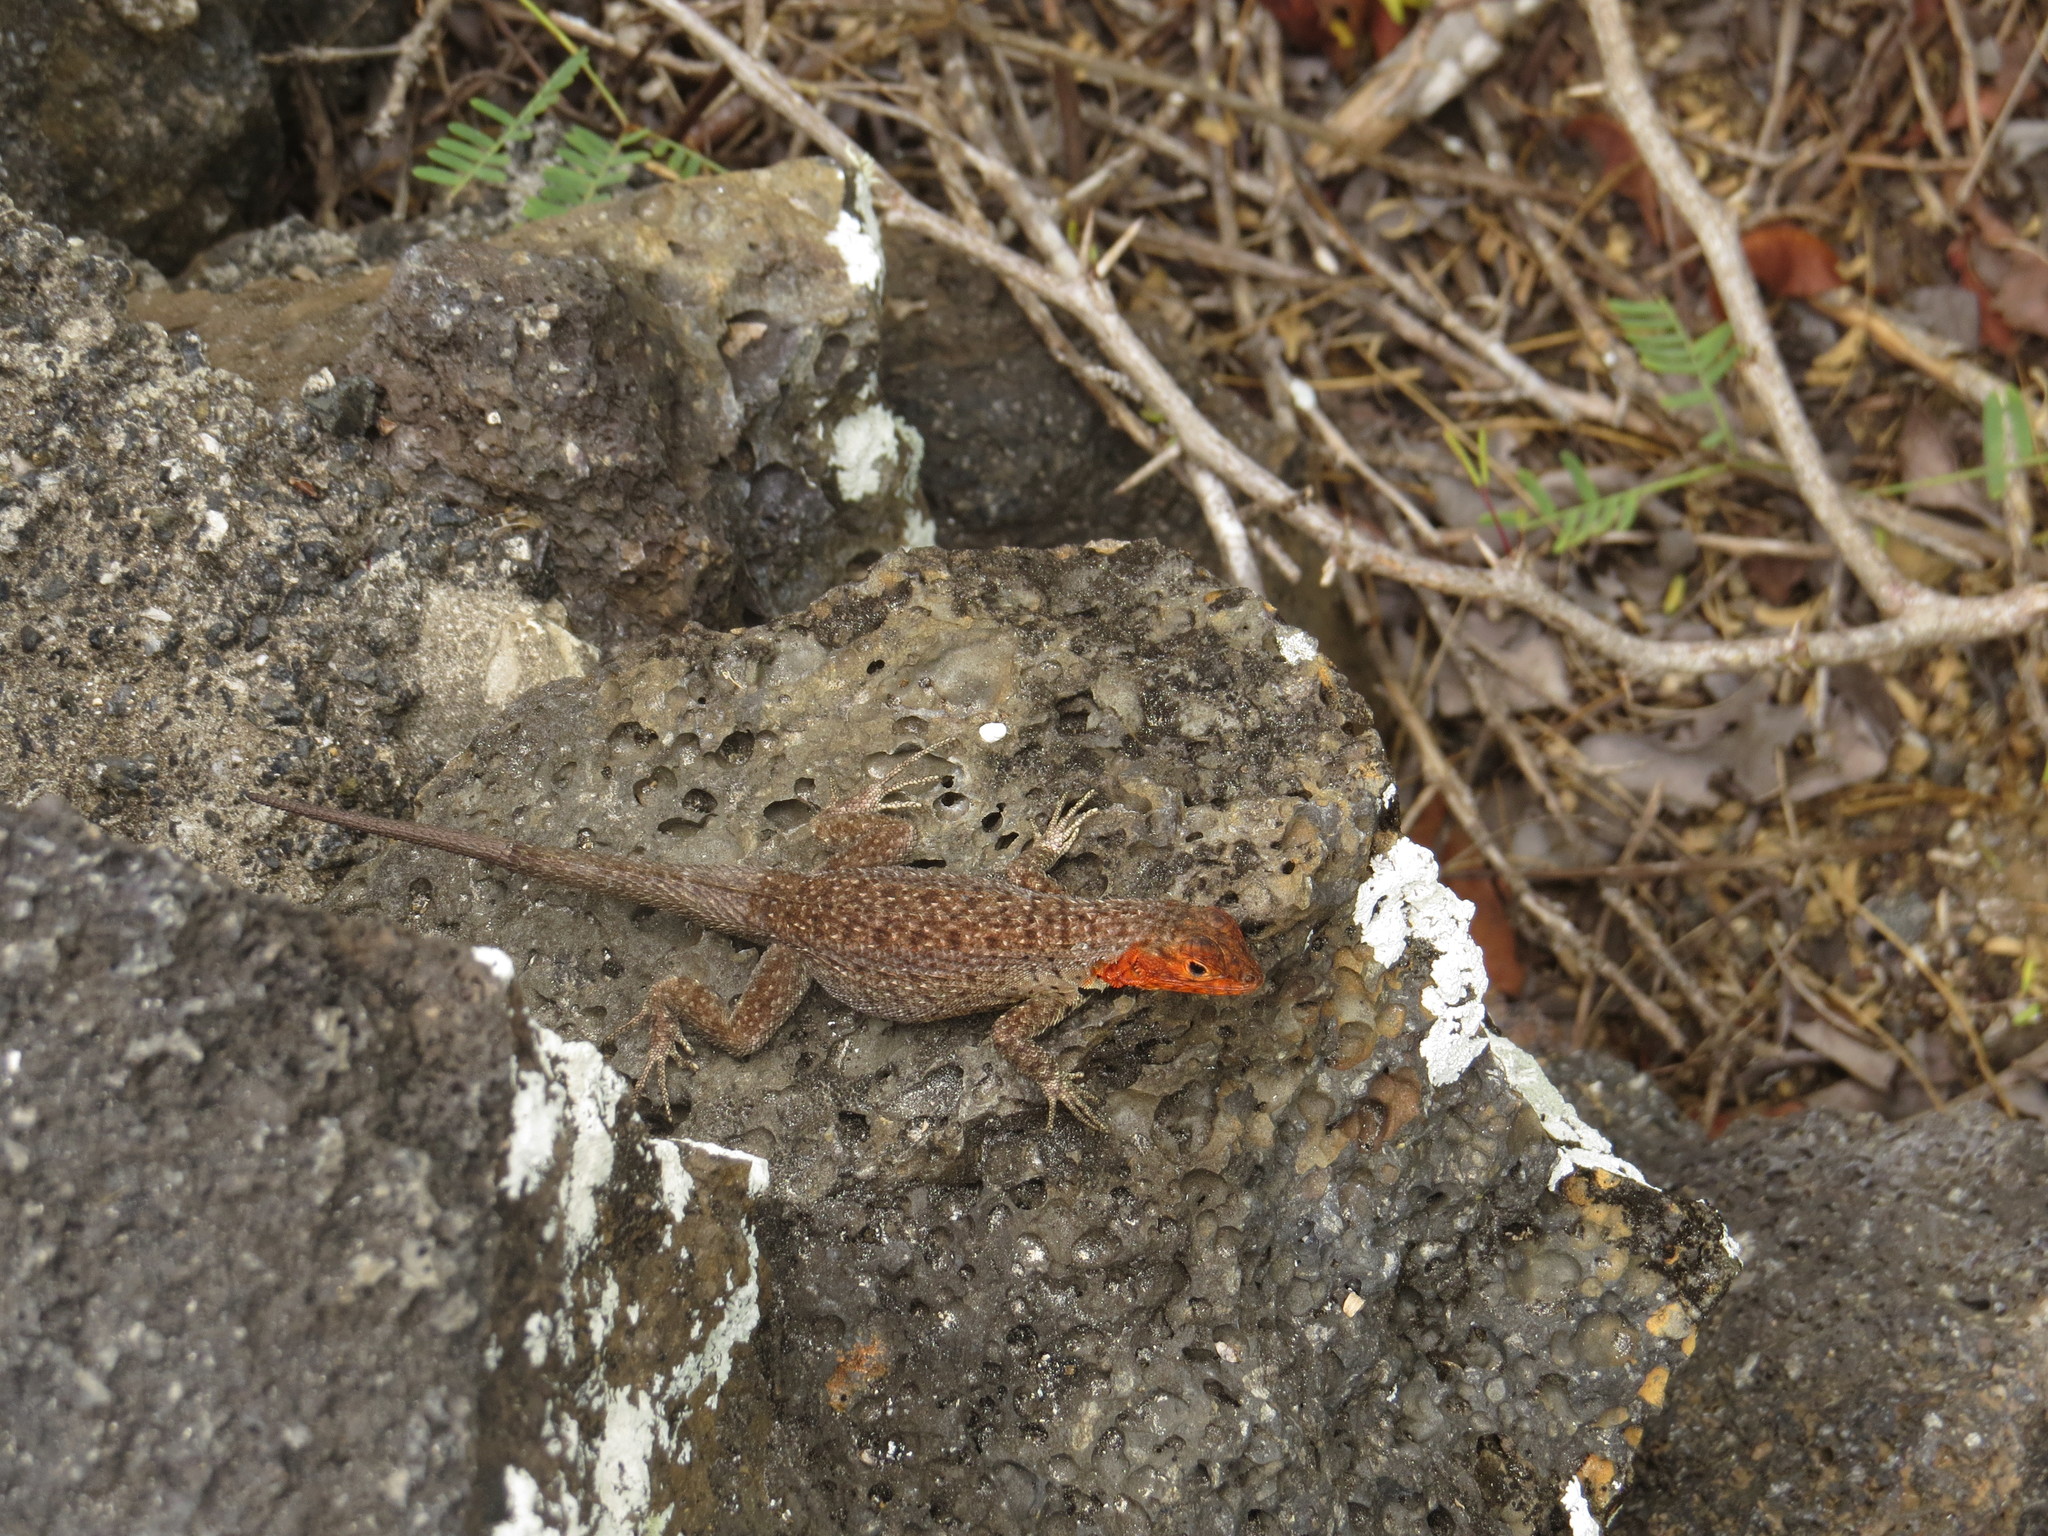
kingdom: Animalia
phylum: Chordata
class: Squamata
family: Tropiduridae
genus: Microlophus
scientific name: Microlophus albemarlensis
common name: Galapagos lava lizard
